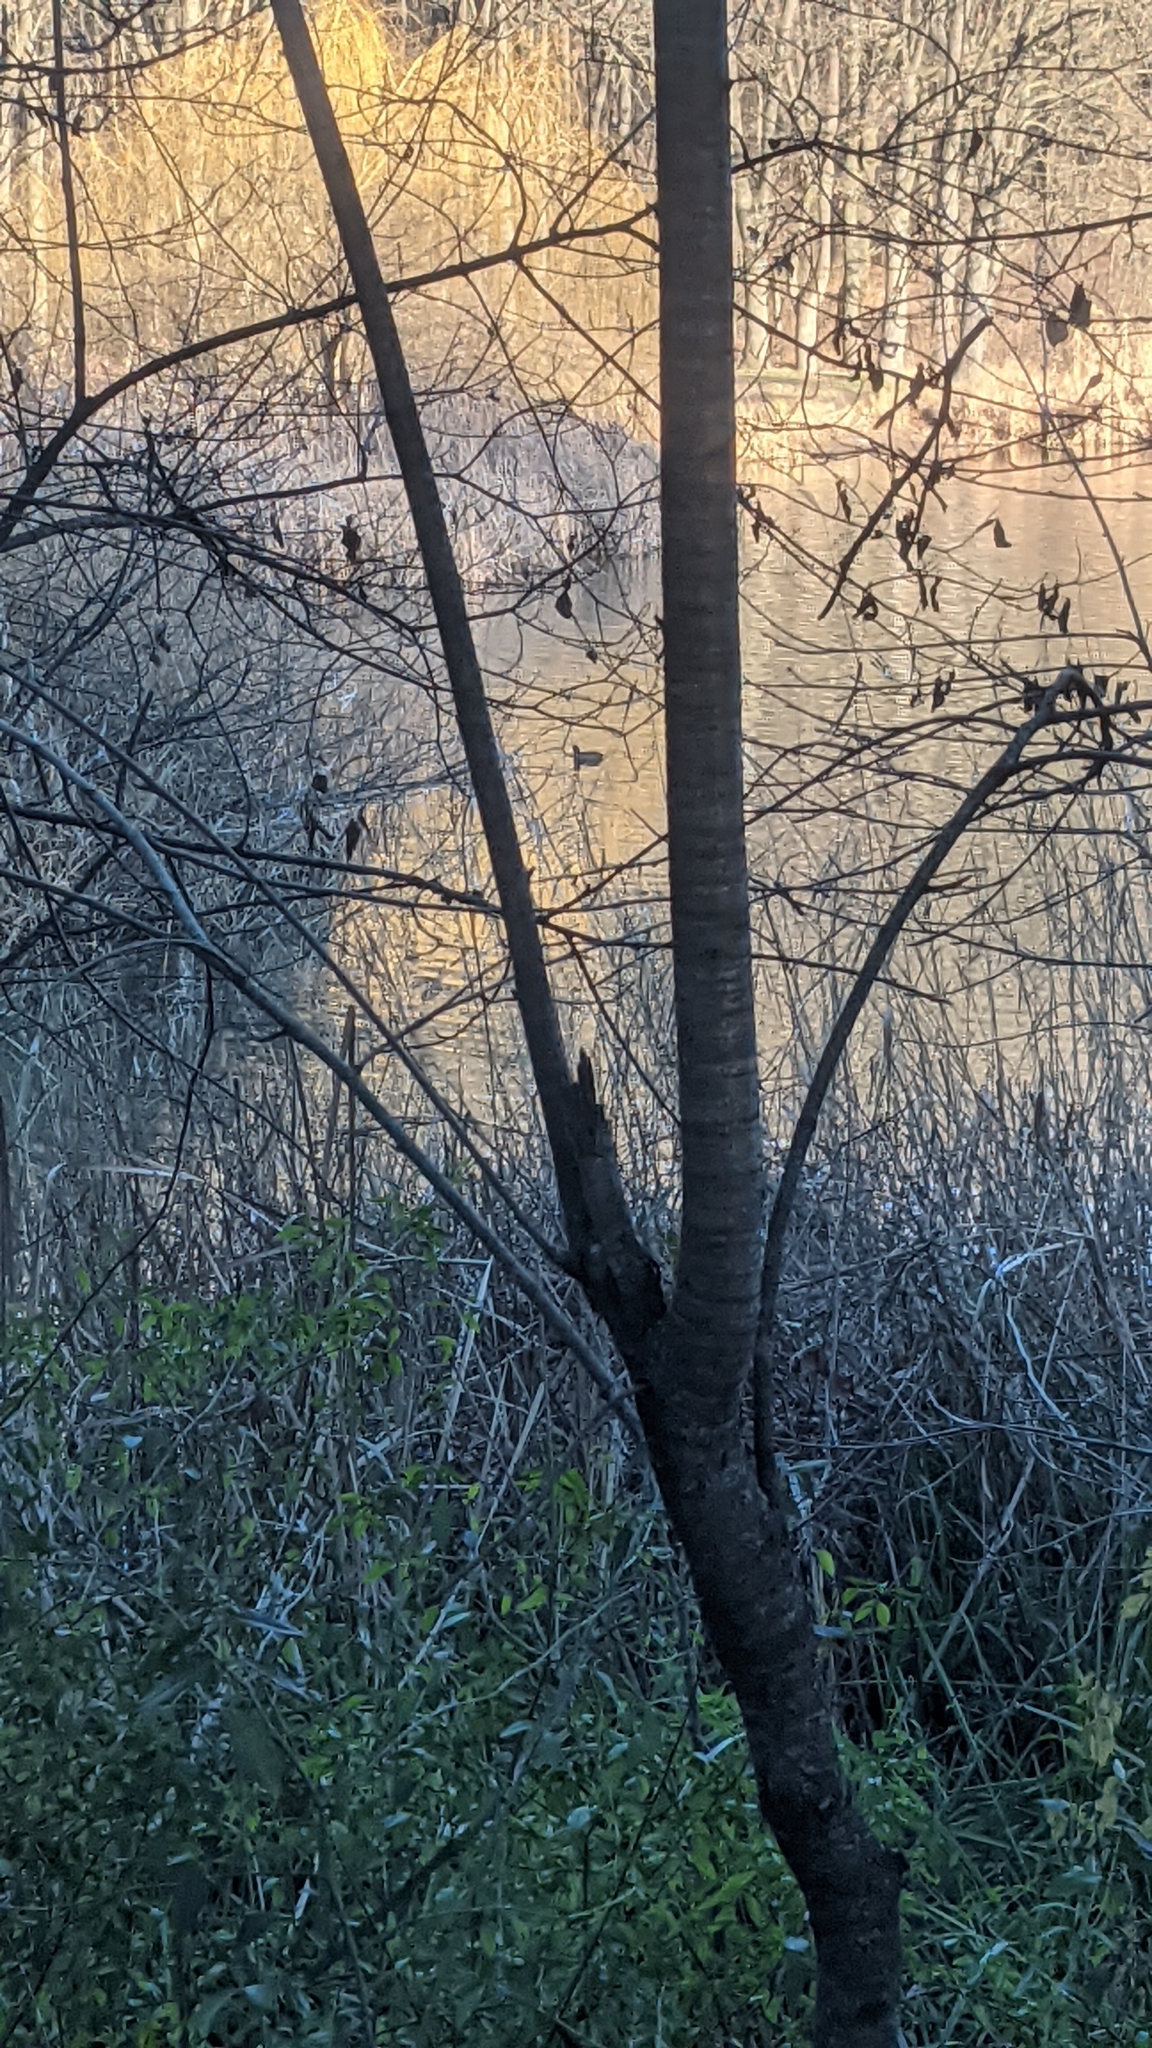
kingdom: Animalia
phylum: Chordata
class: Aves
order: Gruiformes
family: Rallidae
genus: Fulica
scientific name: Fulica atra
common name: Eurasian coot
